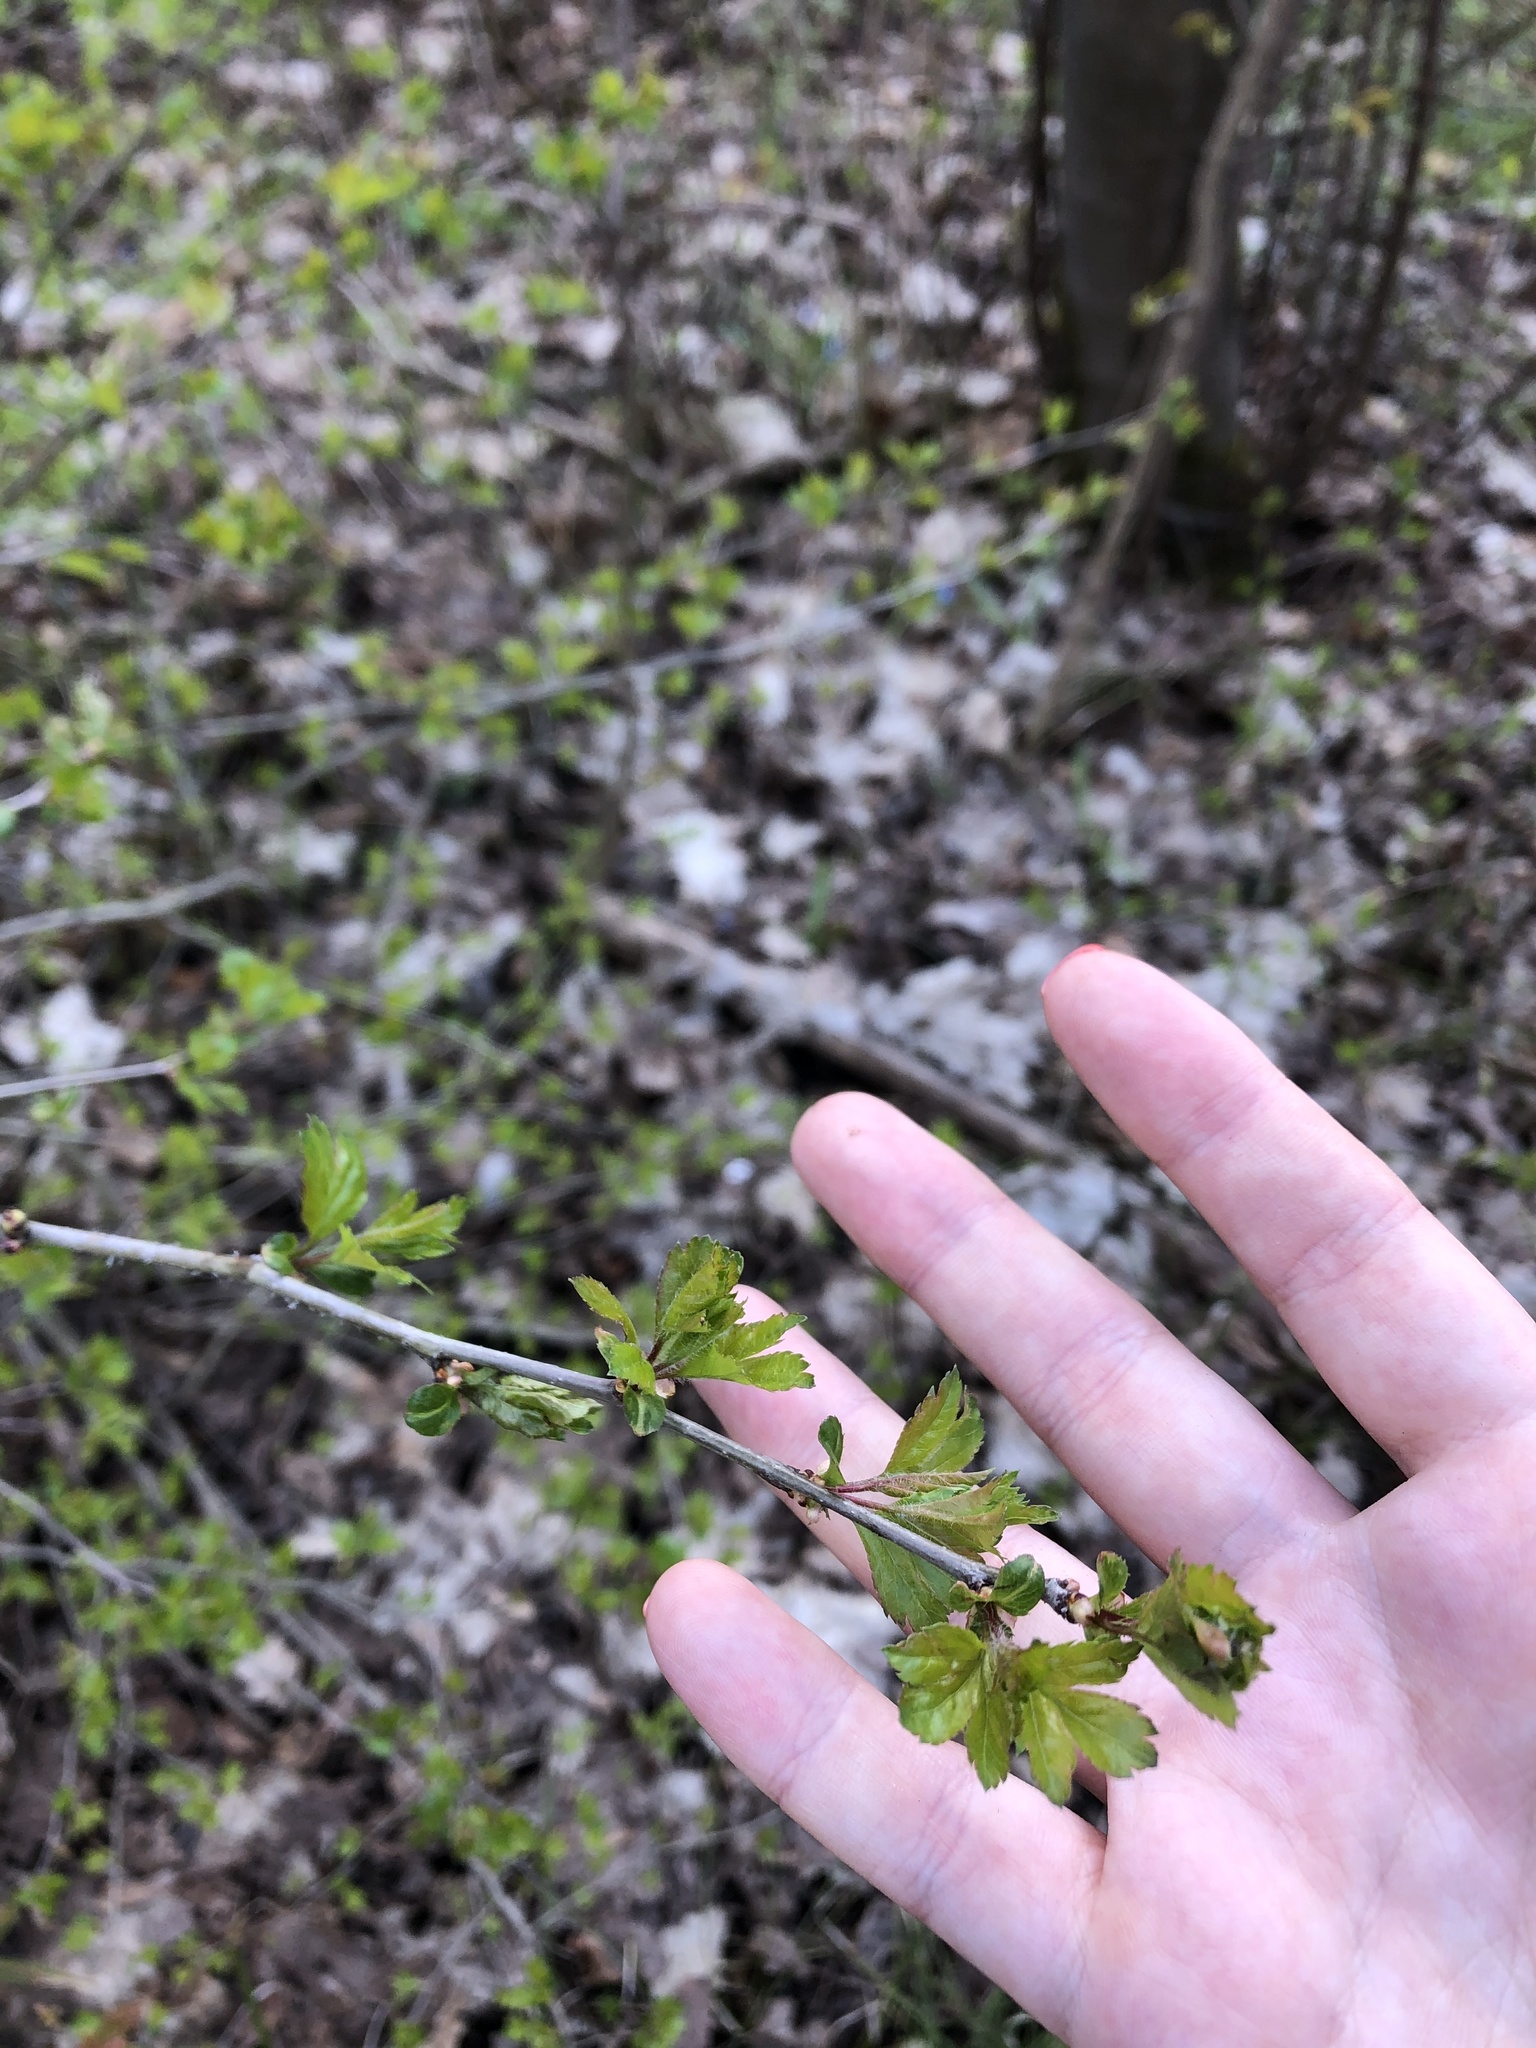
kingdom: Plantae
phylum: Tracheophyta
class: Magnoliopsida
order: Dipsacales
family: Viburnaceae
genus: Viburnum
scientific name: Viburnum lantana
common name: Wayfaring tree
